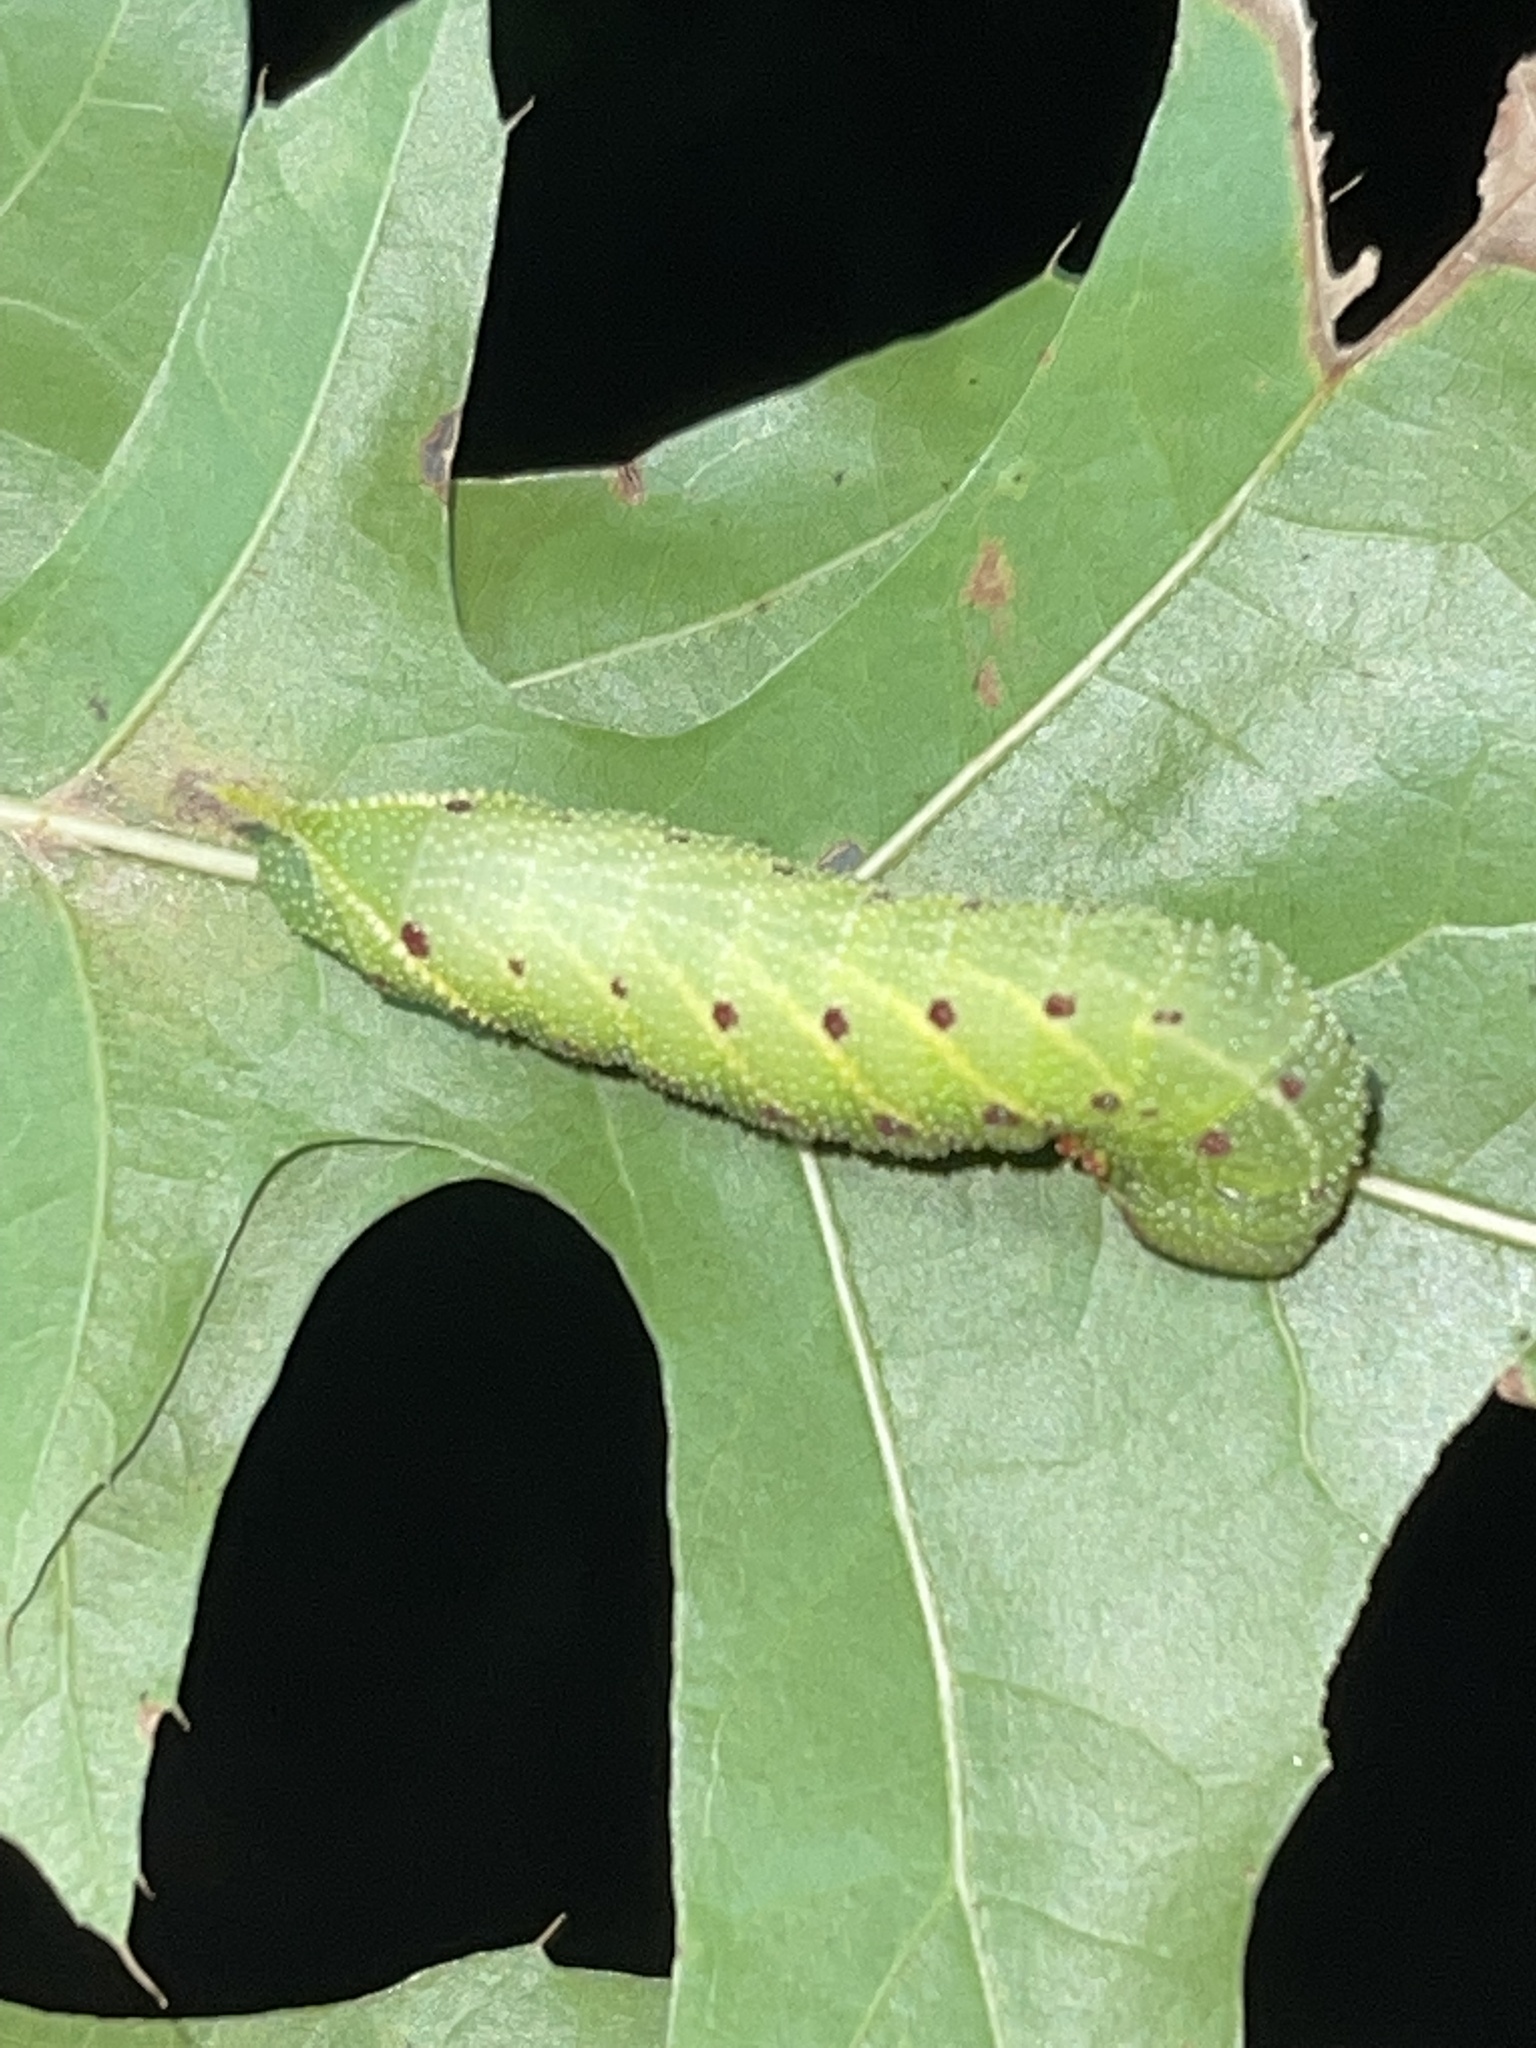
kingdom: Animalia
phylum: Arthropoda
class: Insecta
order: Lepidoptera
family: Sphingidae
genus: Paonias
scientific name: Paonias excaecata
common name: Blind-eyed sphinx
